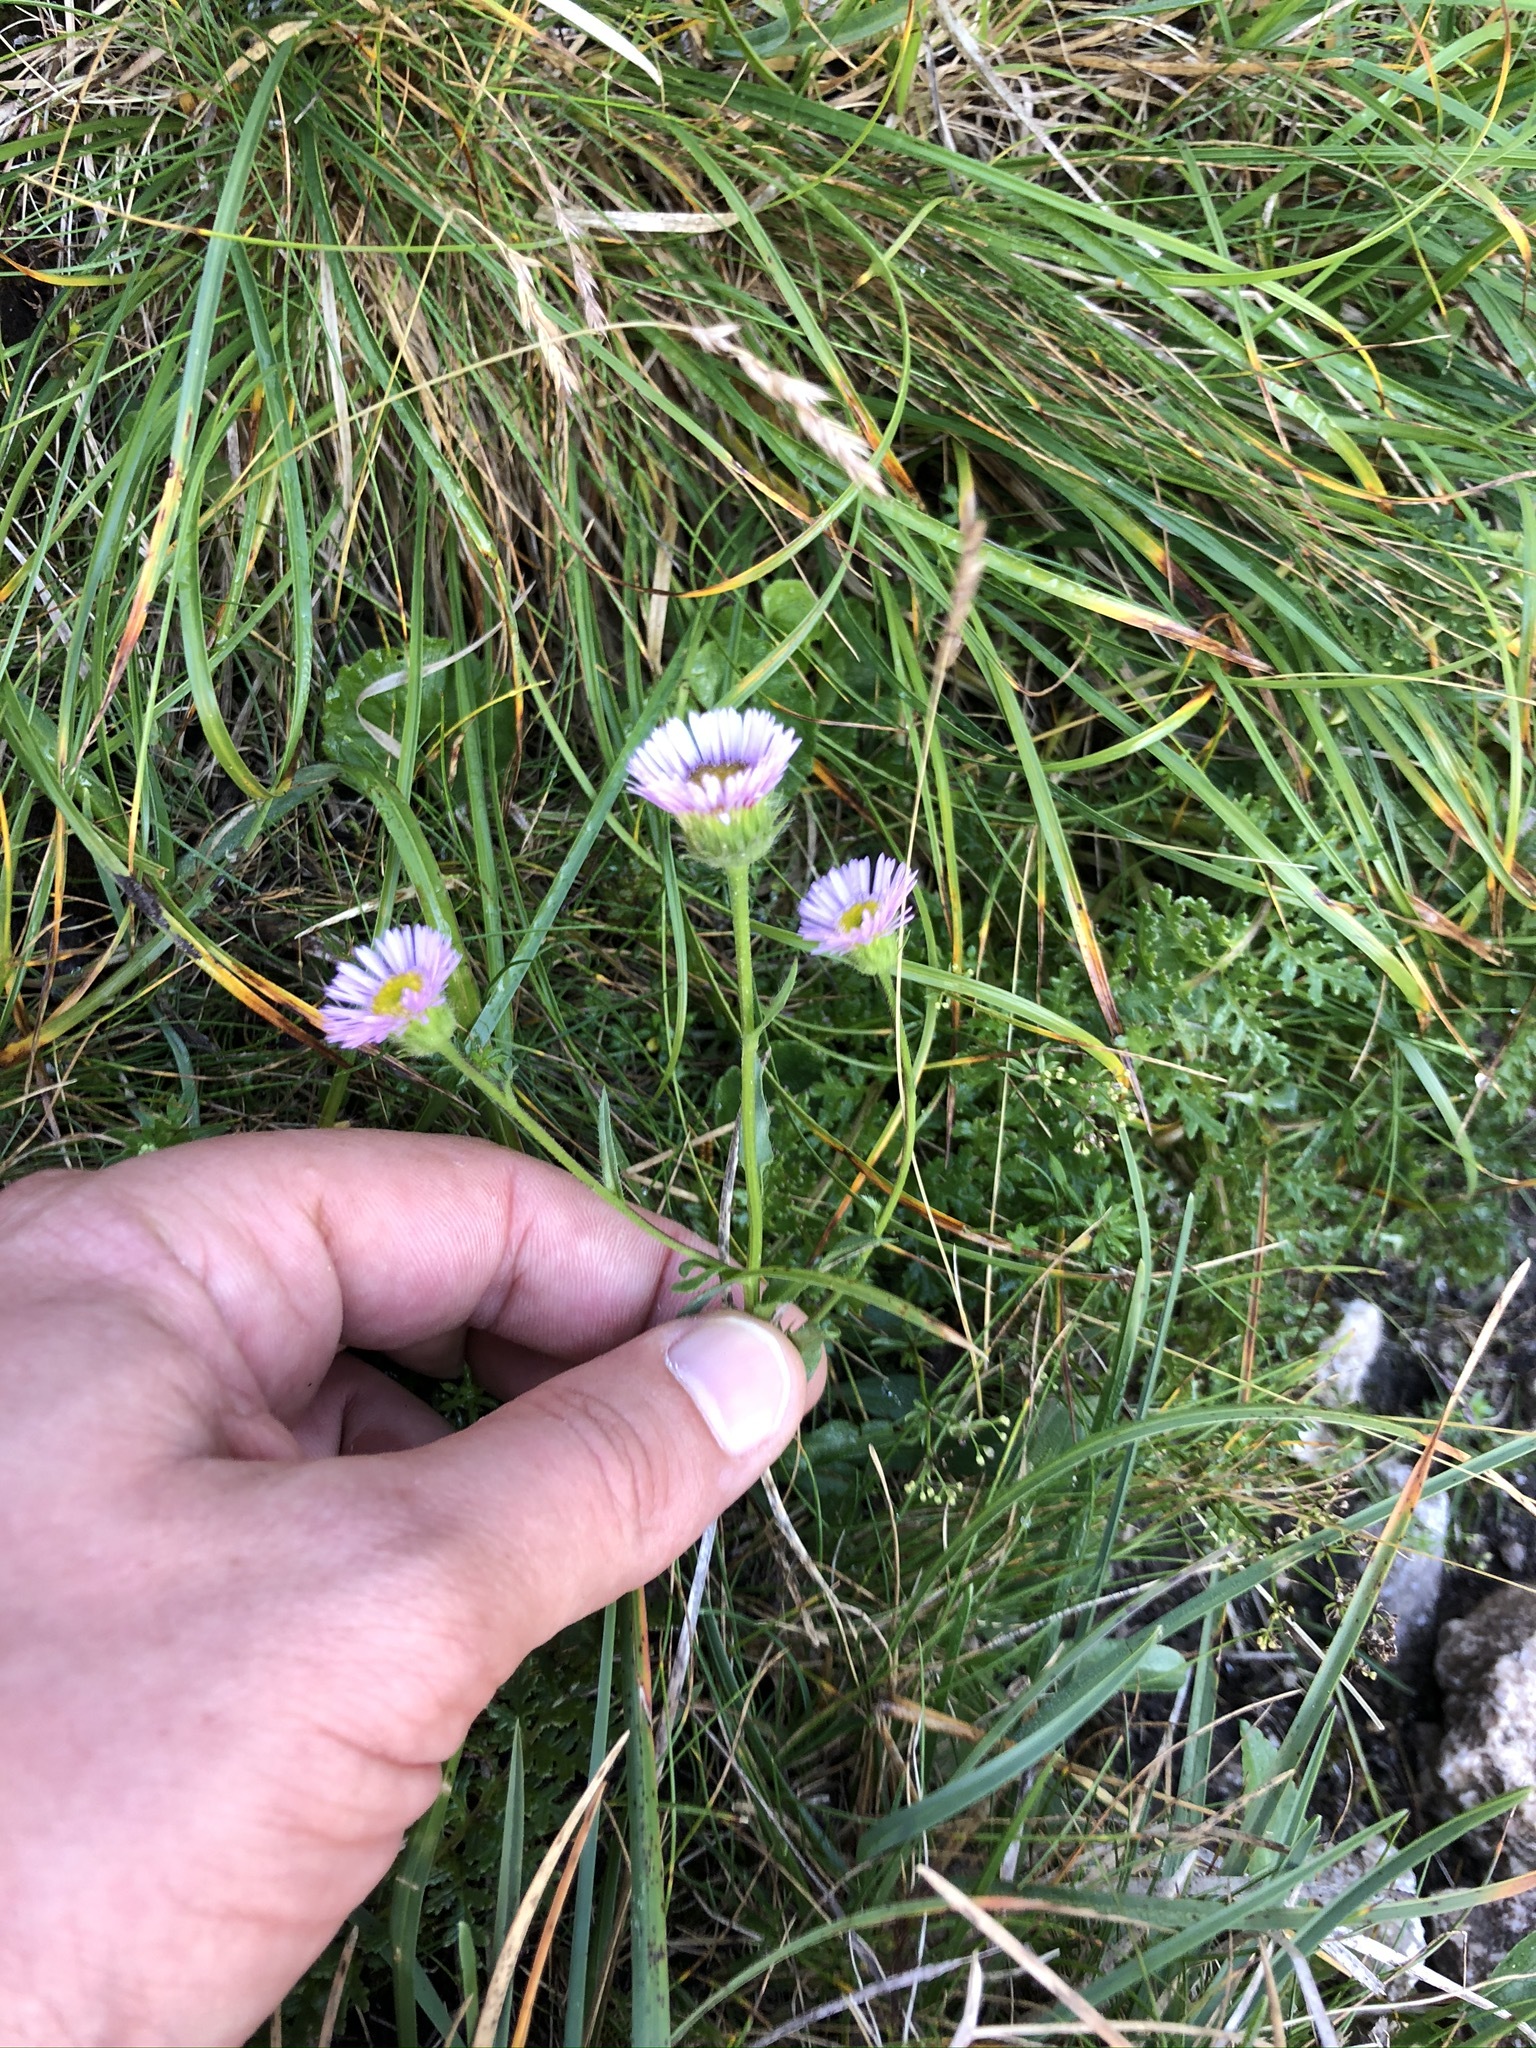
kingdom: Plantae
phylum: Tracheophyta
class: Magnoliopsida
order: Asterales
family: Asteraceae
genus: Erigeron
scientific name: Erigeron glabratus
